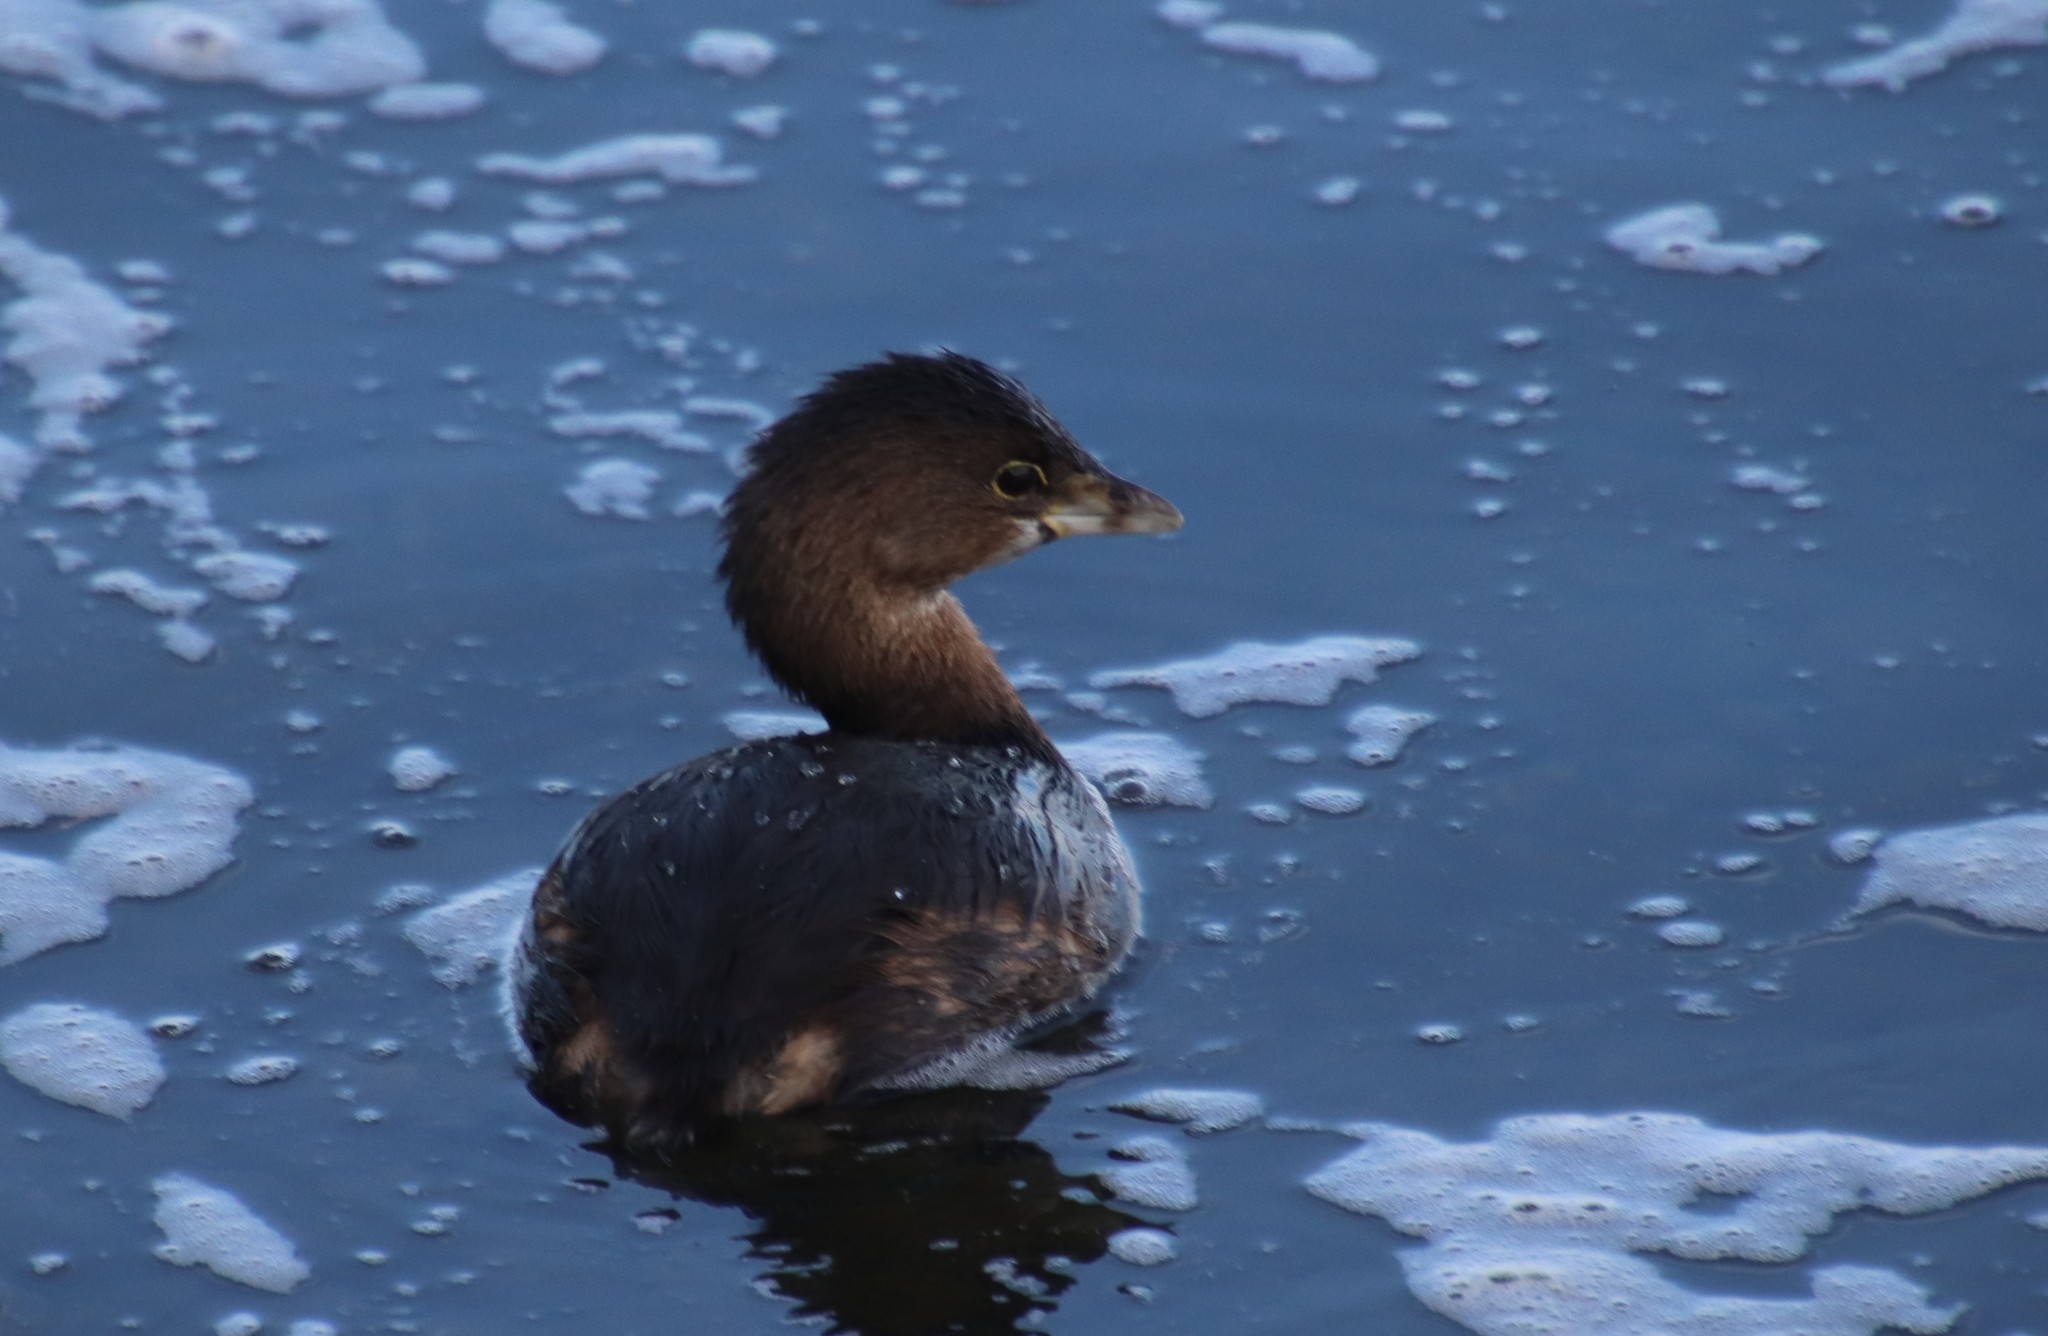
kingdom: Animalia
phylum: Chordata
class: Aves
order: Podicipediformes
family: Podicipedidae
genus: Podilymbus
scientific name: Podilymbus podiceps
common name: Pied-billed grebe
